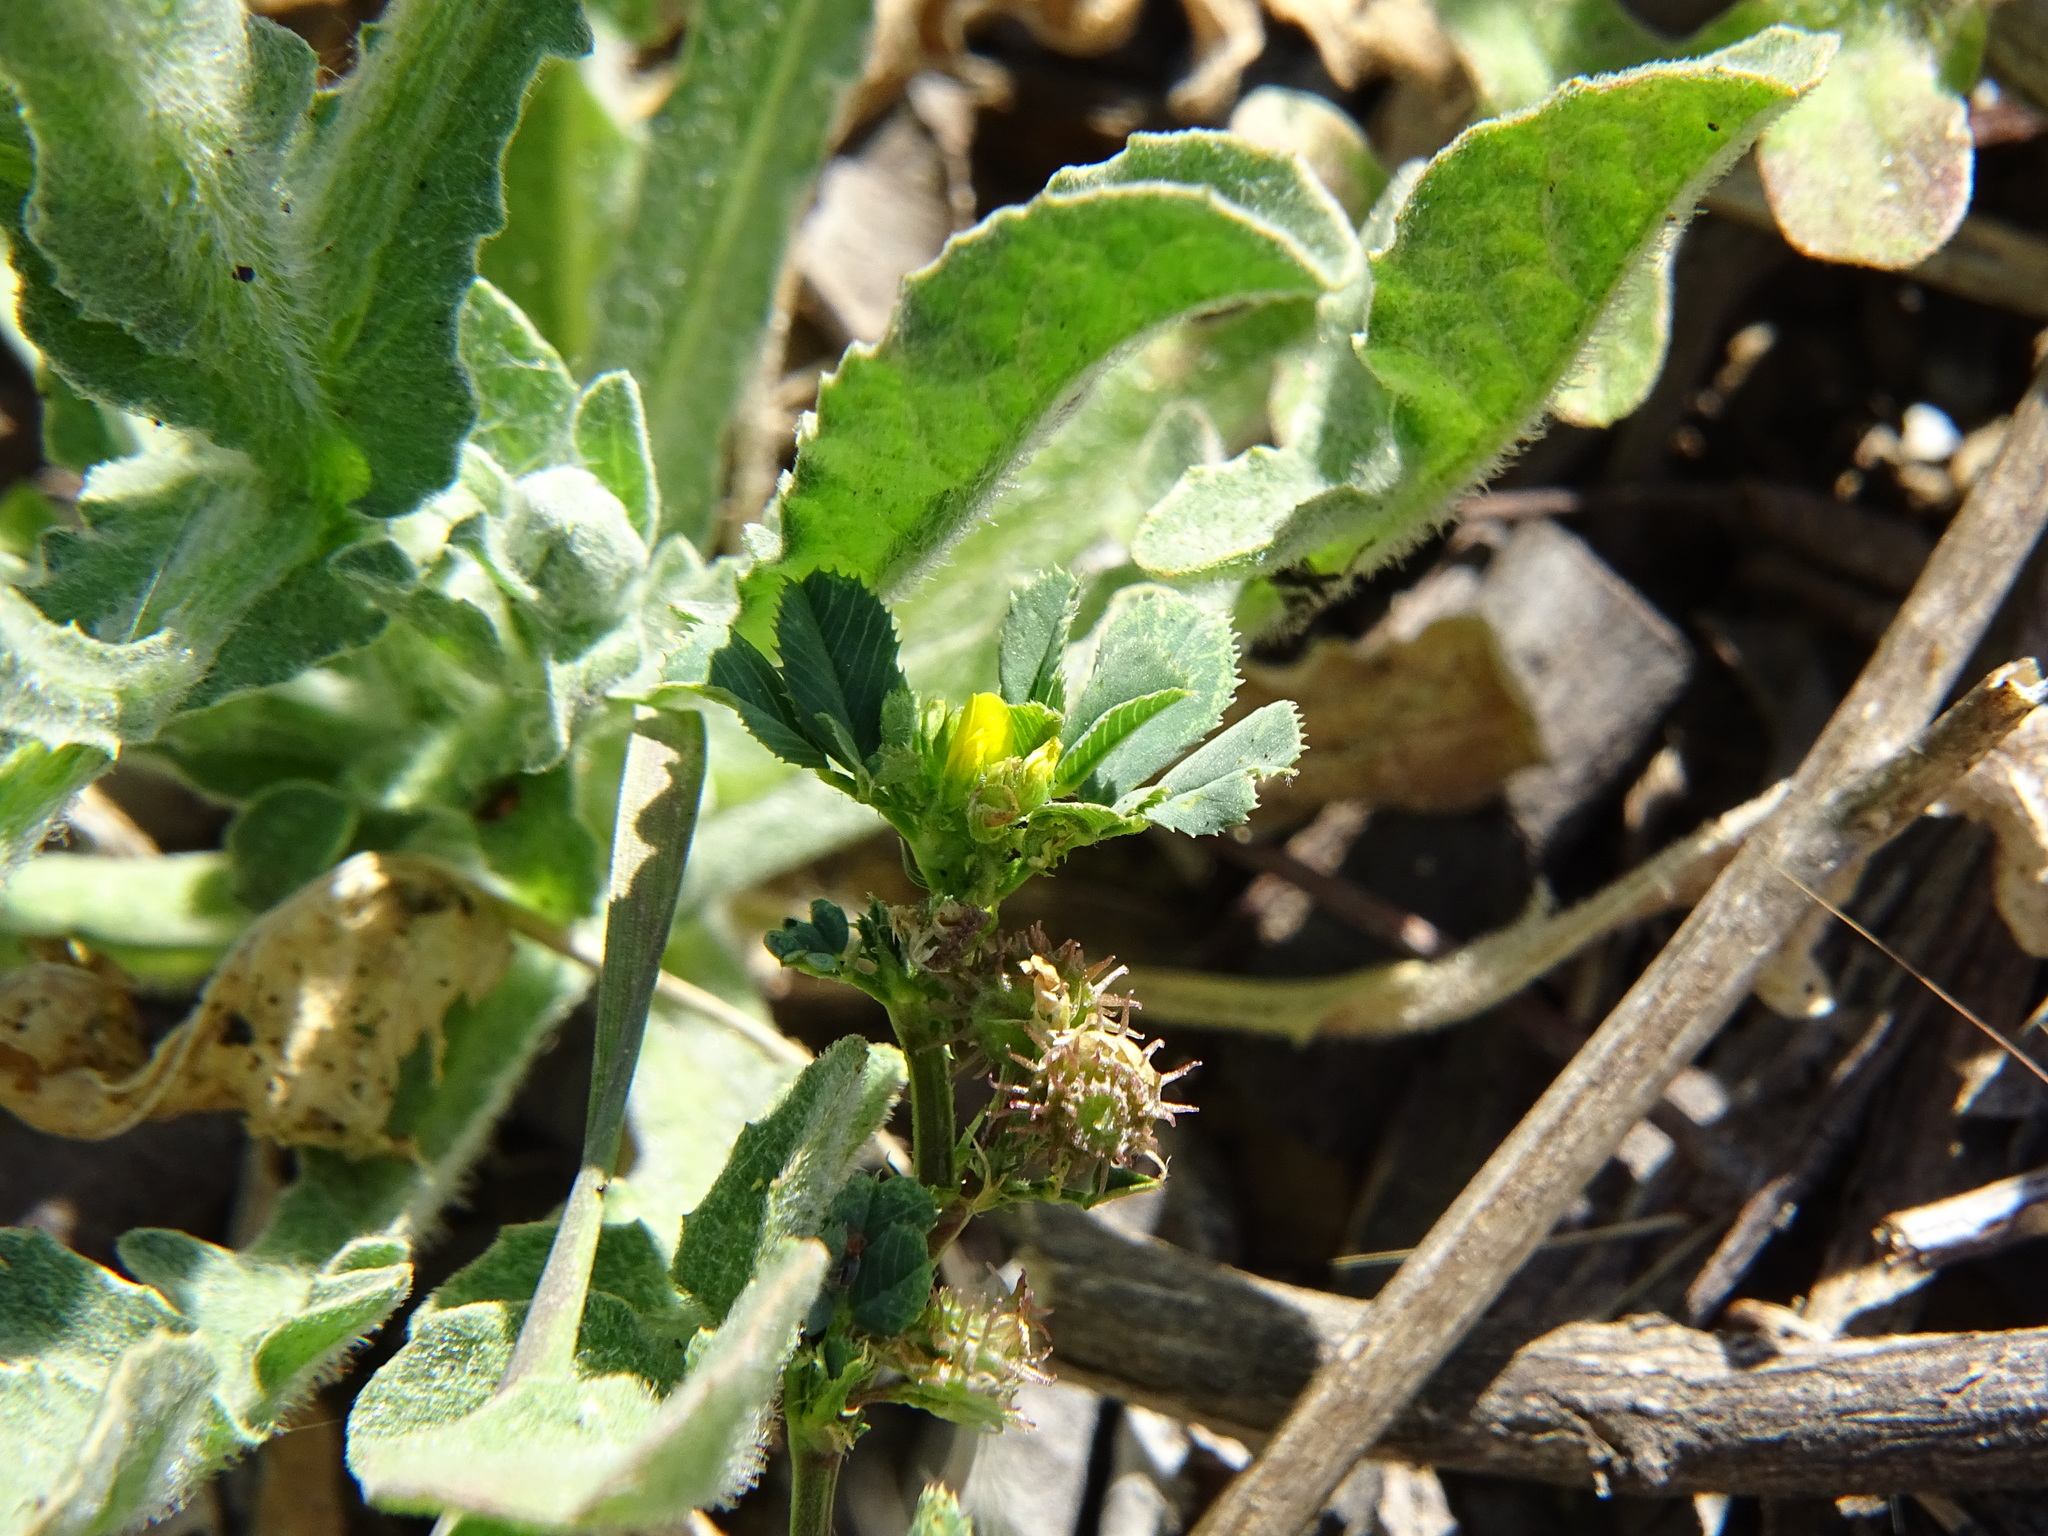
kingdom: Plantae
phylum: Tracheophyta
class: Magnoliopsida
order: Fabales
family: Fabaceae
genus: Medicago
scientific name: Medicago polymorpha
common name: Burclover
